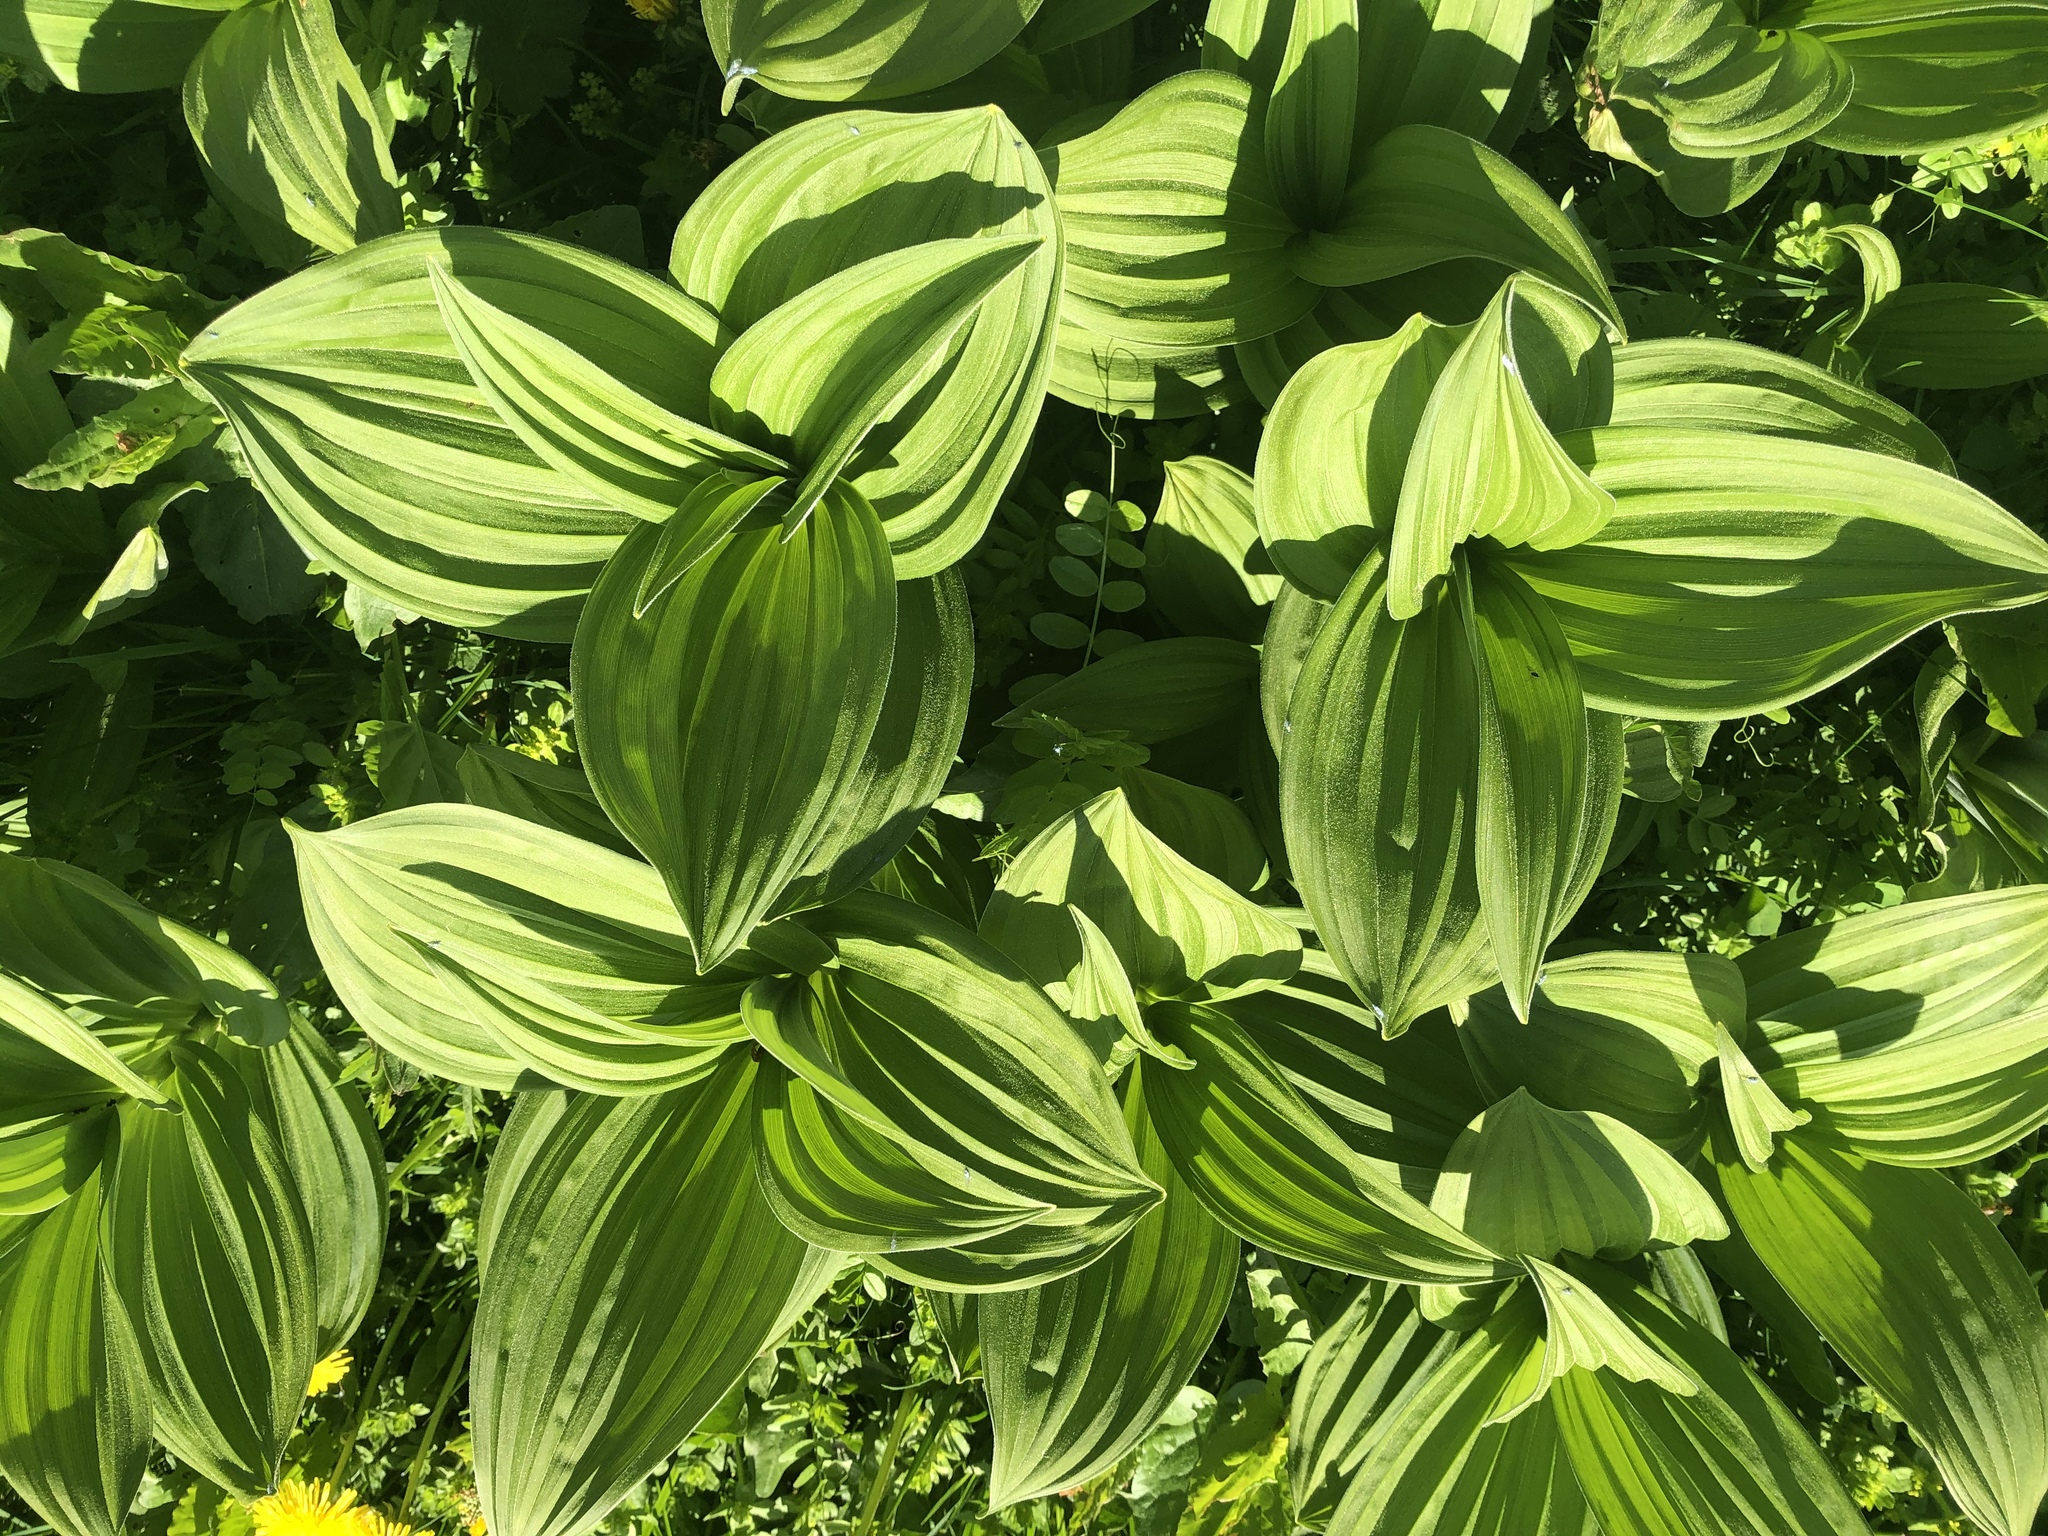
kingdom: Plantae
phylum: Tracheophyta
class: Liliopsida
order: Liliales
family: Melanthiaceae
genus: Veratrum
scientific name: Veratrum album
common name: White veratrum
